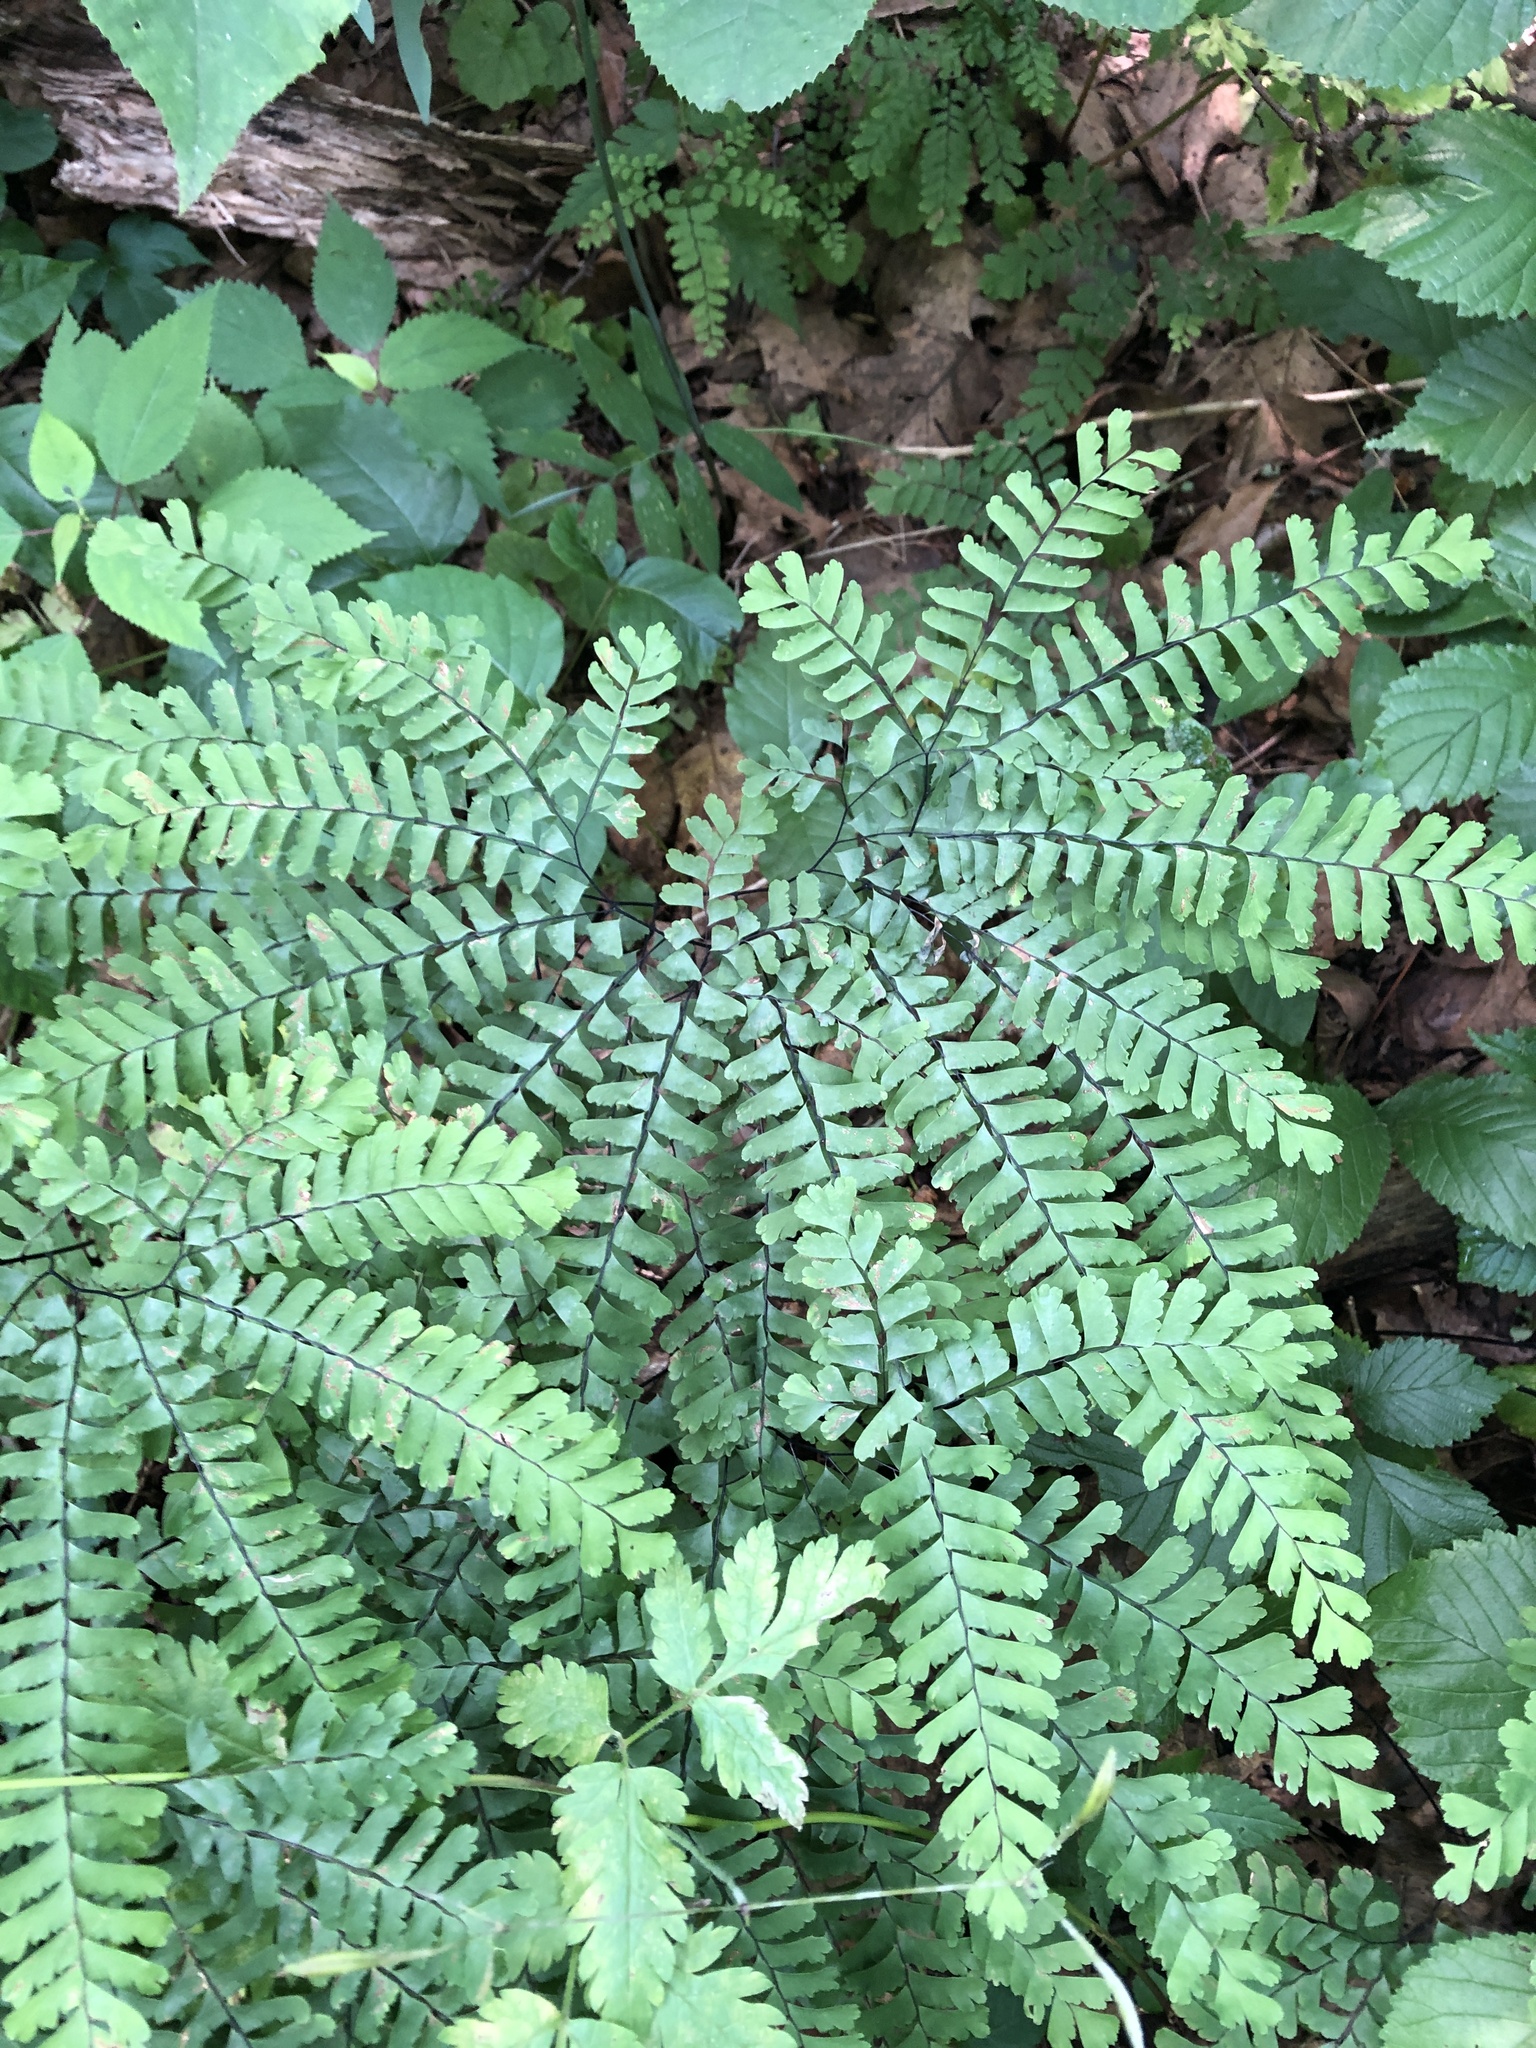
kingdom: Plantae
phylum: Tracheophyta
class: Polypodiopsida
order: Polypodiales
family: Pteridaceae
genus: Adiantum
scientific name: Adiantum pedatum
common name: Five-finger fern
